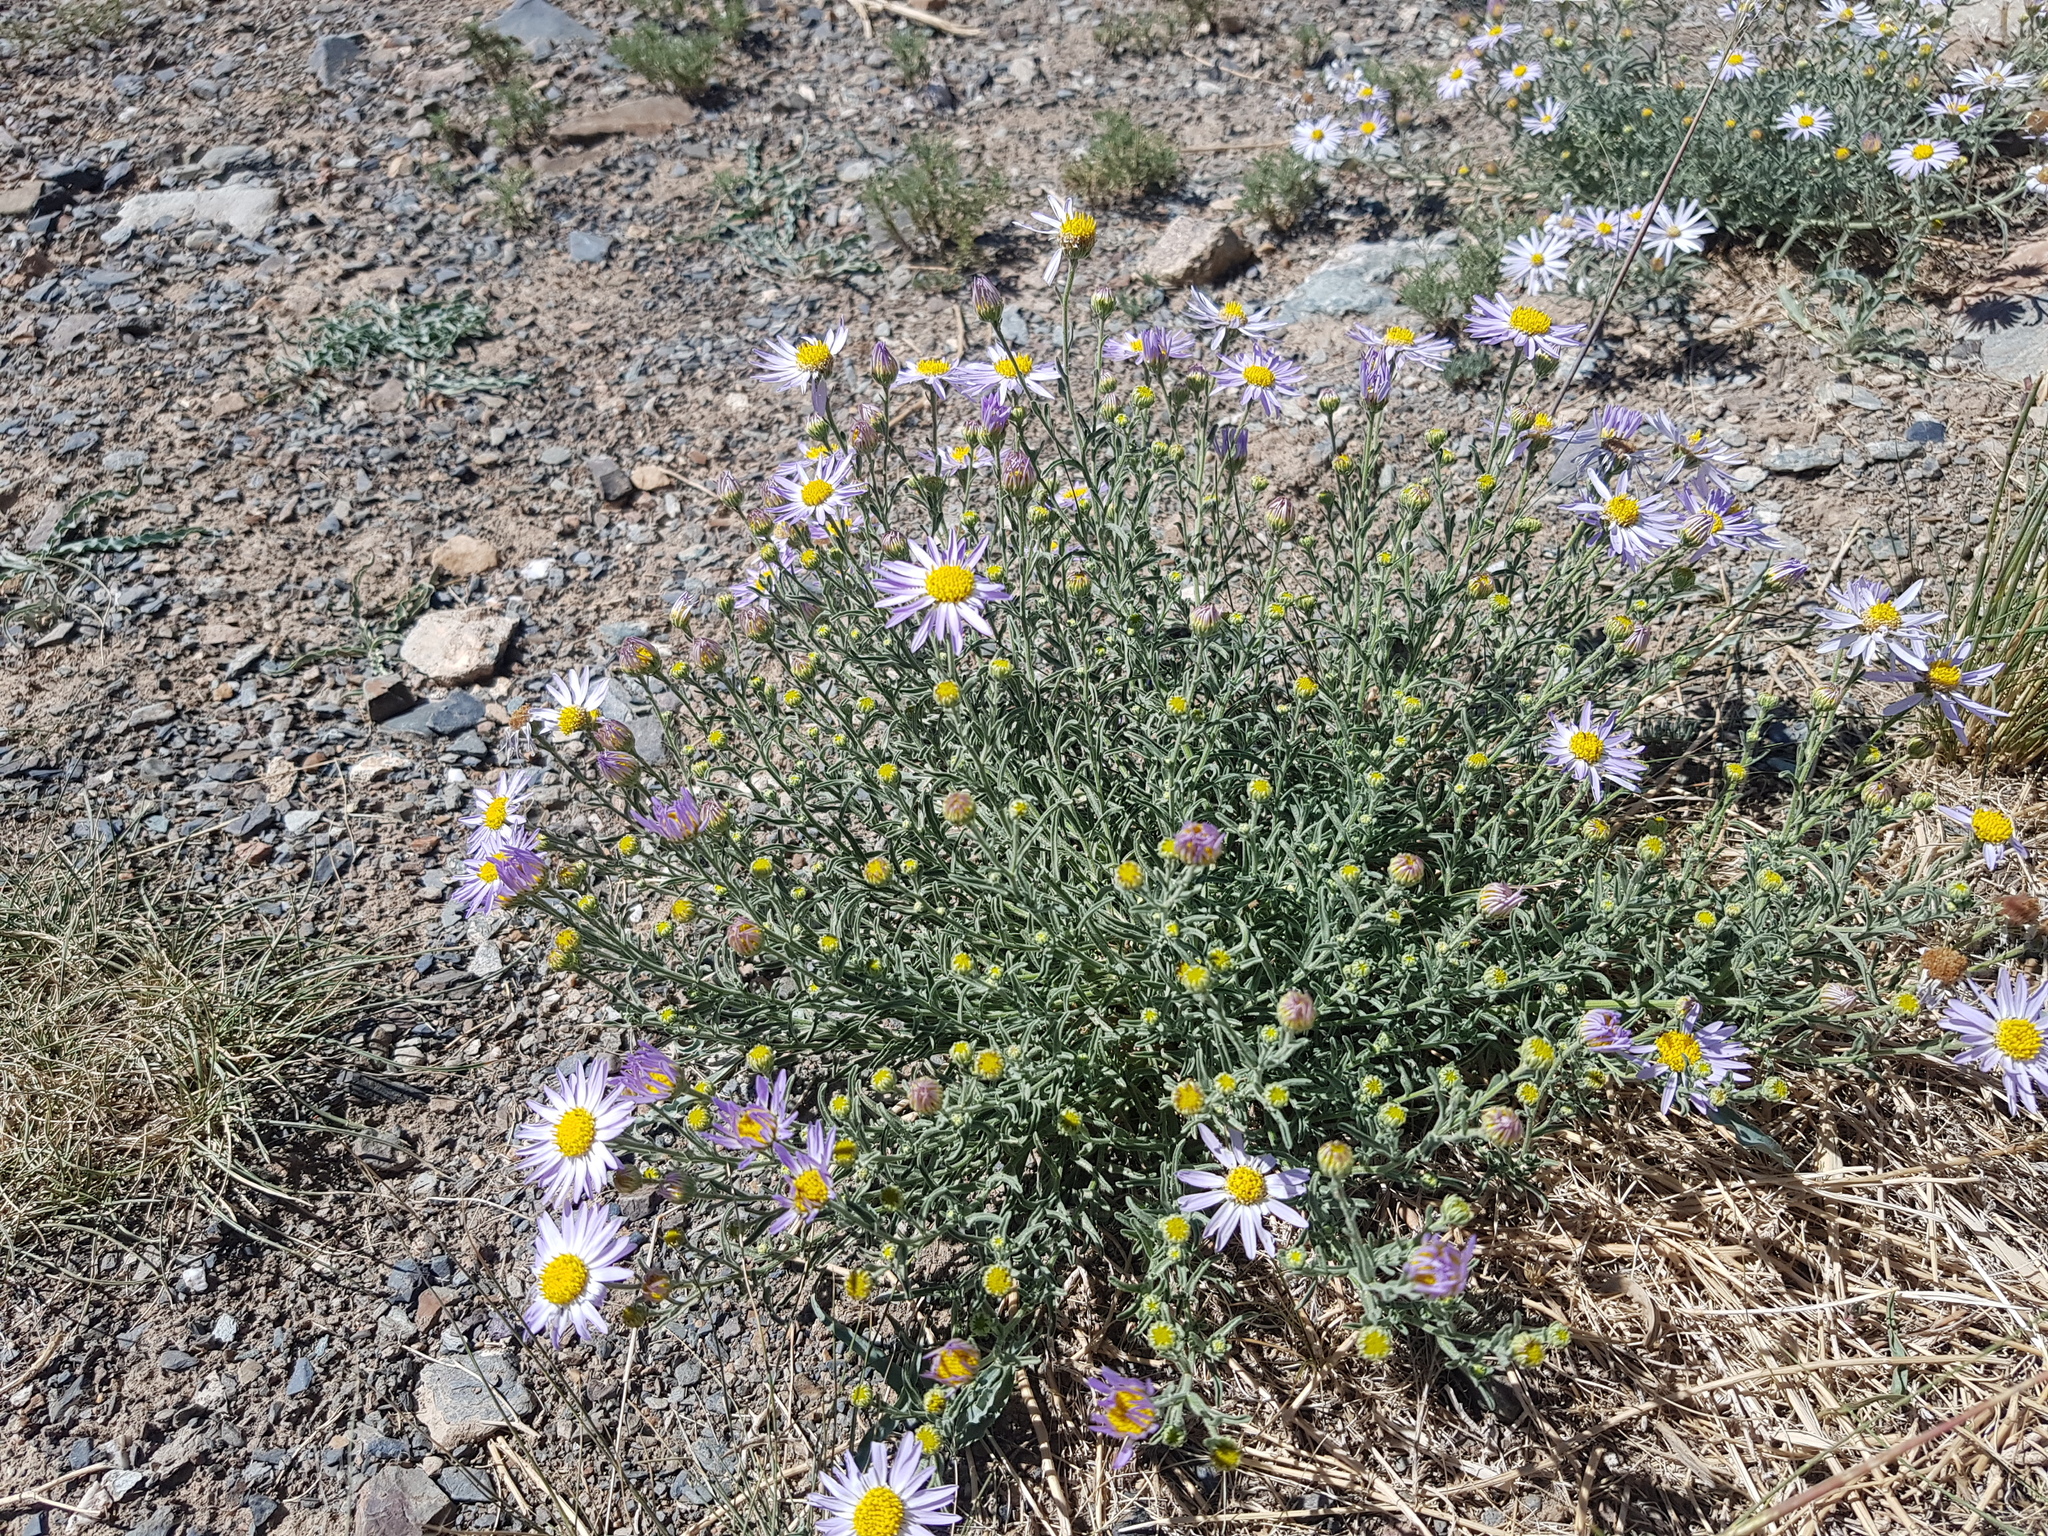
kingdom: Plantae
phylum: Tracheophyta
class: Magnoliopsida
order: Asterales
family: Asteraceae
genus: Heteropappus
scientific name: Heteropappus altaicus
